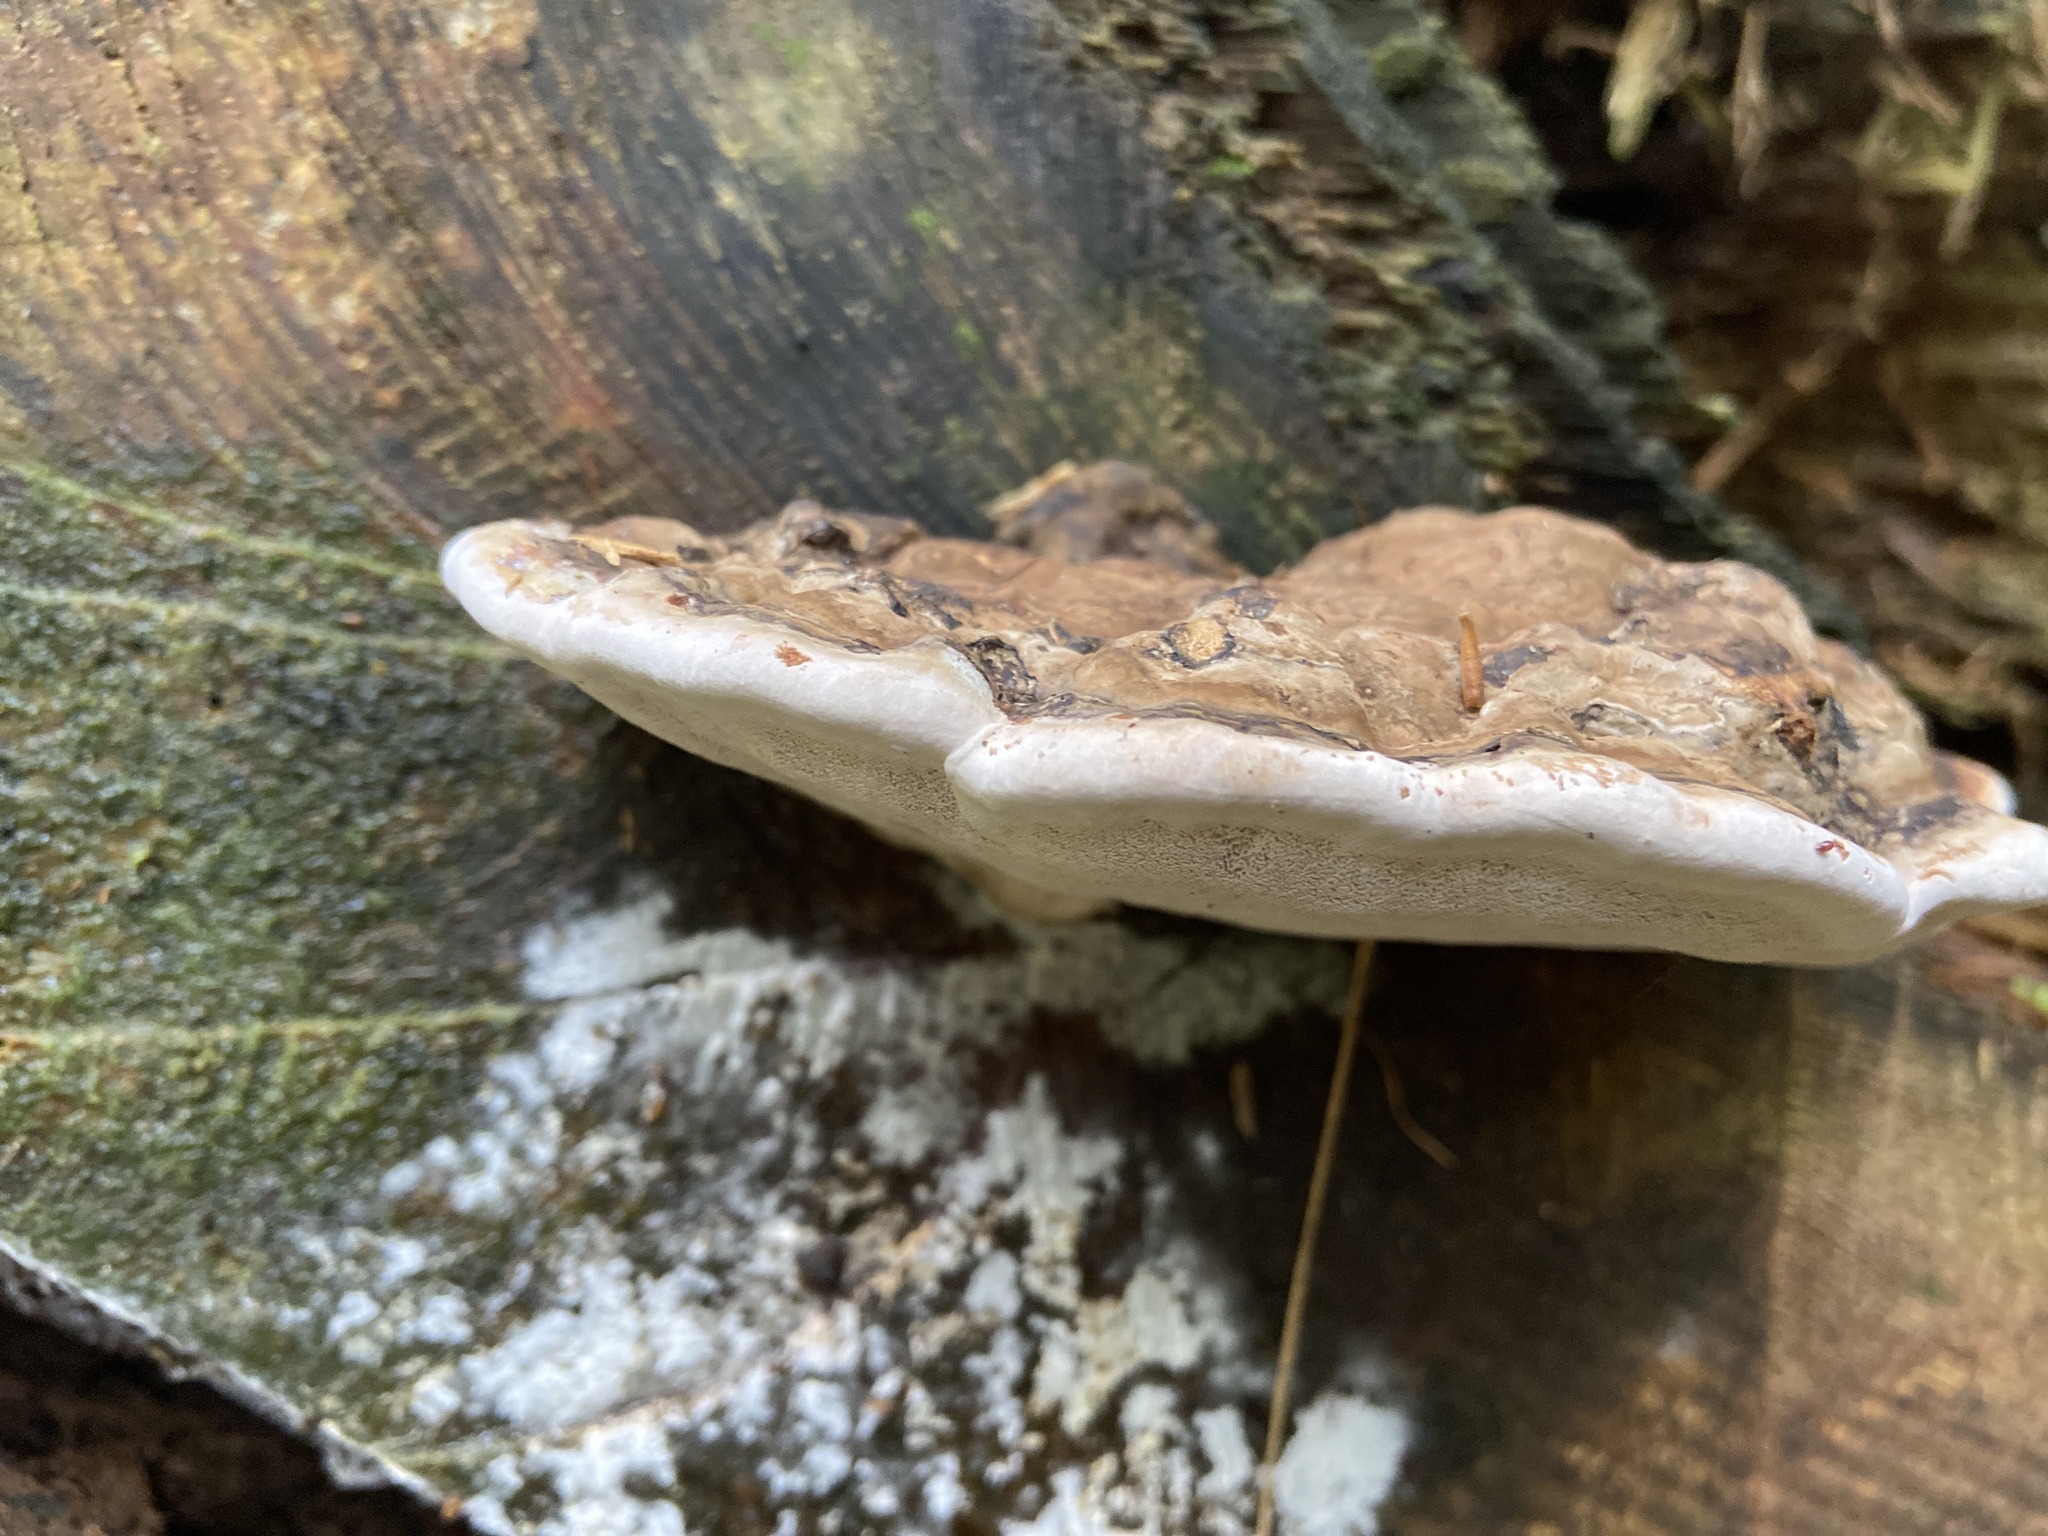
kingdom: Fungi
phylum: Basidiomycota
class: Agaricomycetes
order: Polyporales
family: Polyporaceae
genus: Ganoderma
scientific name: Ganoderma applanatum
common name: Artist's bracket
